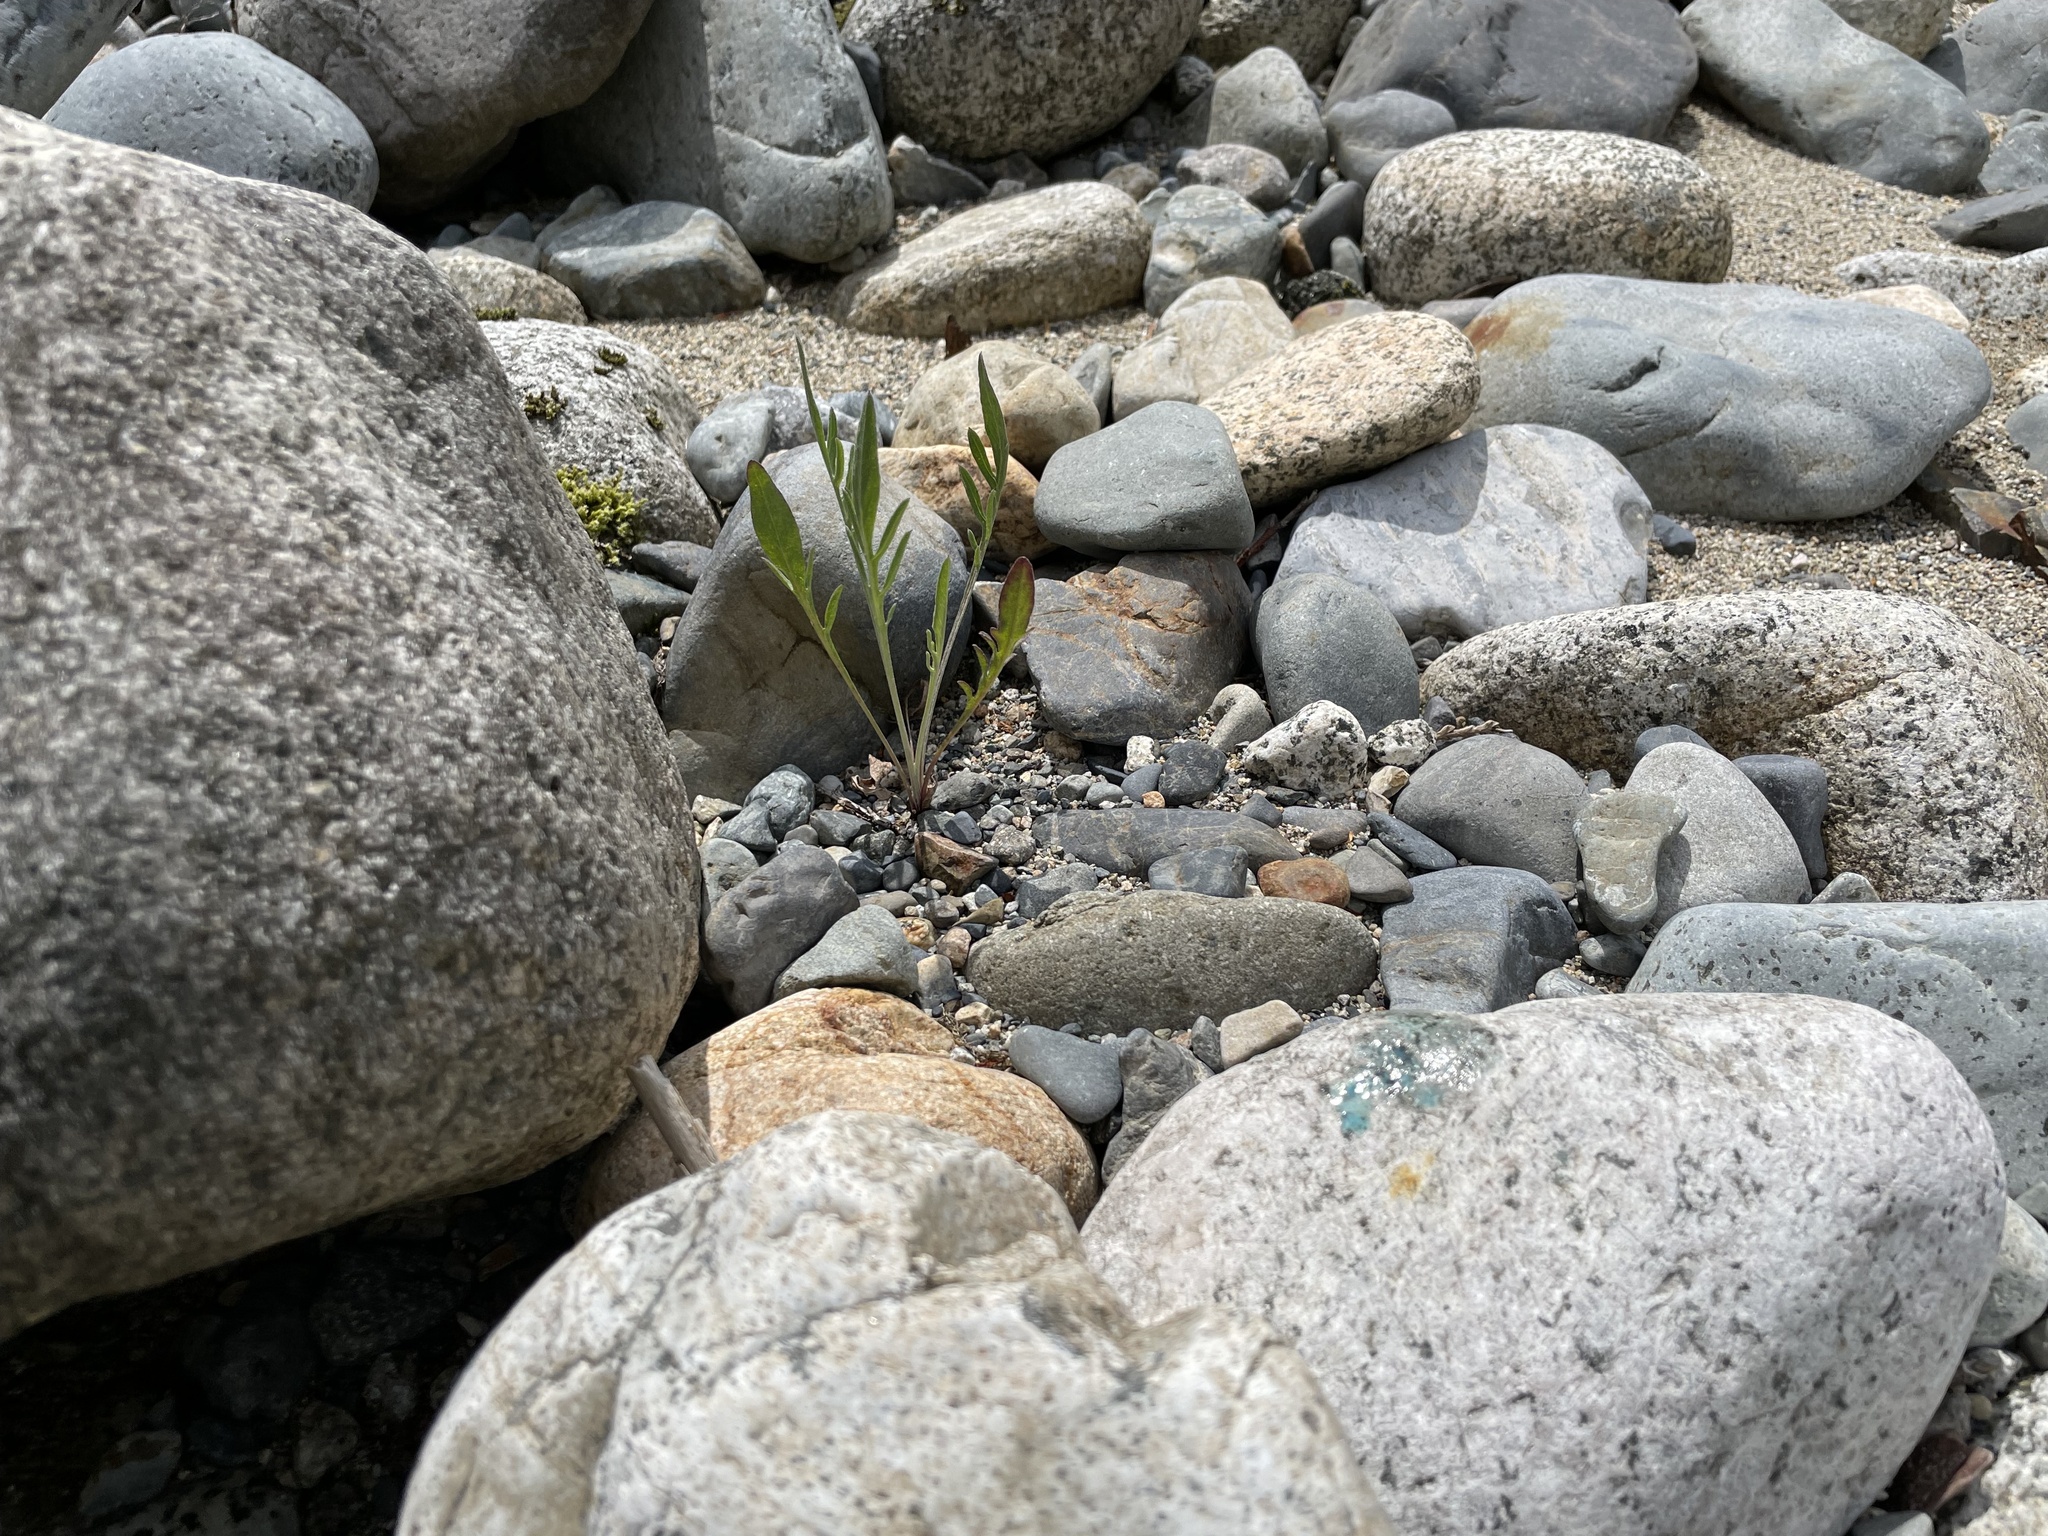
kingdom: Plantae
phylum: Tracheophyta
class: Magnoliopsida
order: Asterales
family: Asteraceae
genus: Centaurea
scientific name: Centaurea stoebe
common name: Spotted knapweed
